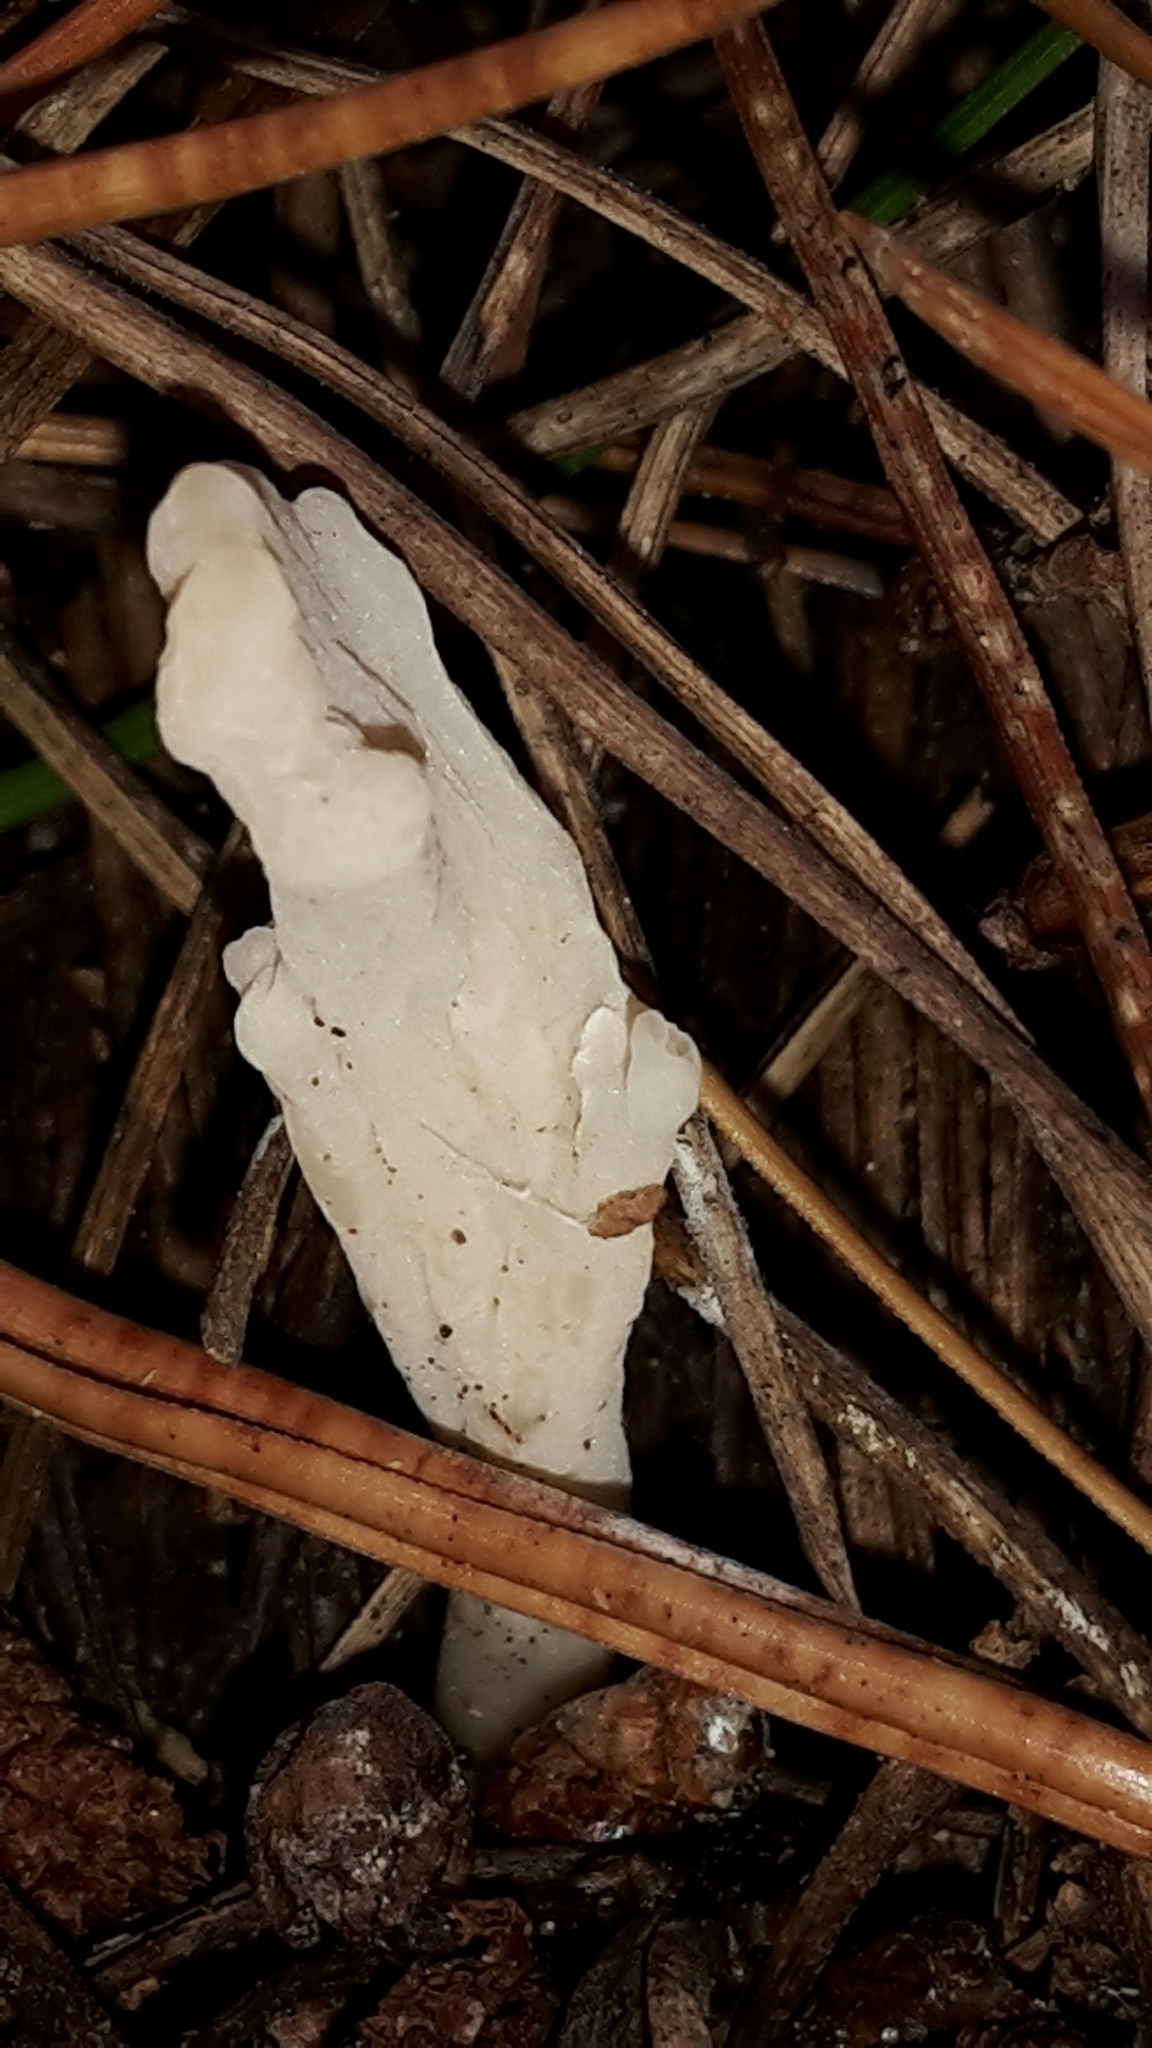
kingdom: Fungi
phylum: Basidiomycota
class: Agaricomycetes
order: Cantharellales
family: Hydnaceae
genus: Clavulina
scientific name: Clavulina rugosa
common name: Wrinkled club
